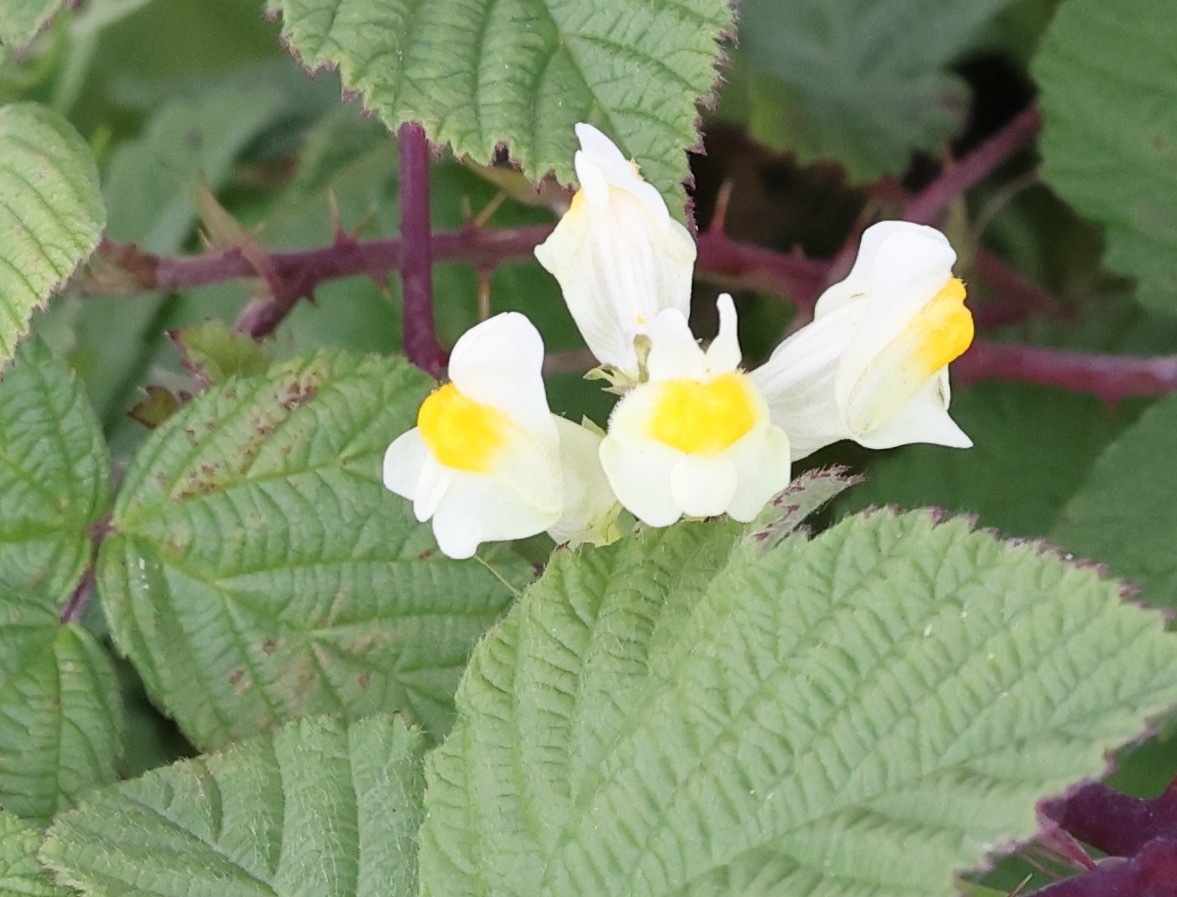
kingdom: Plantae
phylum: Tracheophyta
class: Magnoliopsida
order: Lamiales
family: Plantaginaceae
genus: Linaria
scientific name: Linaria vulgaris
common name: Butter and eggs
